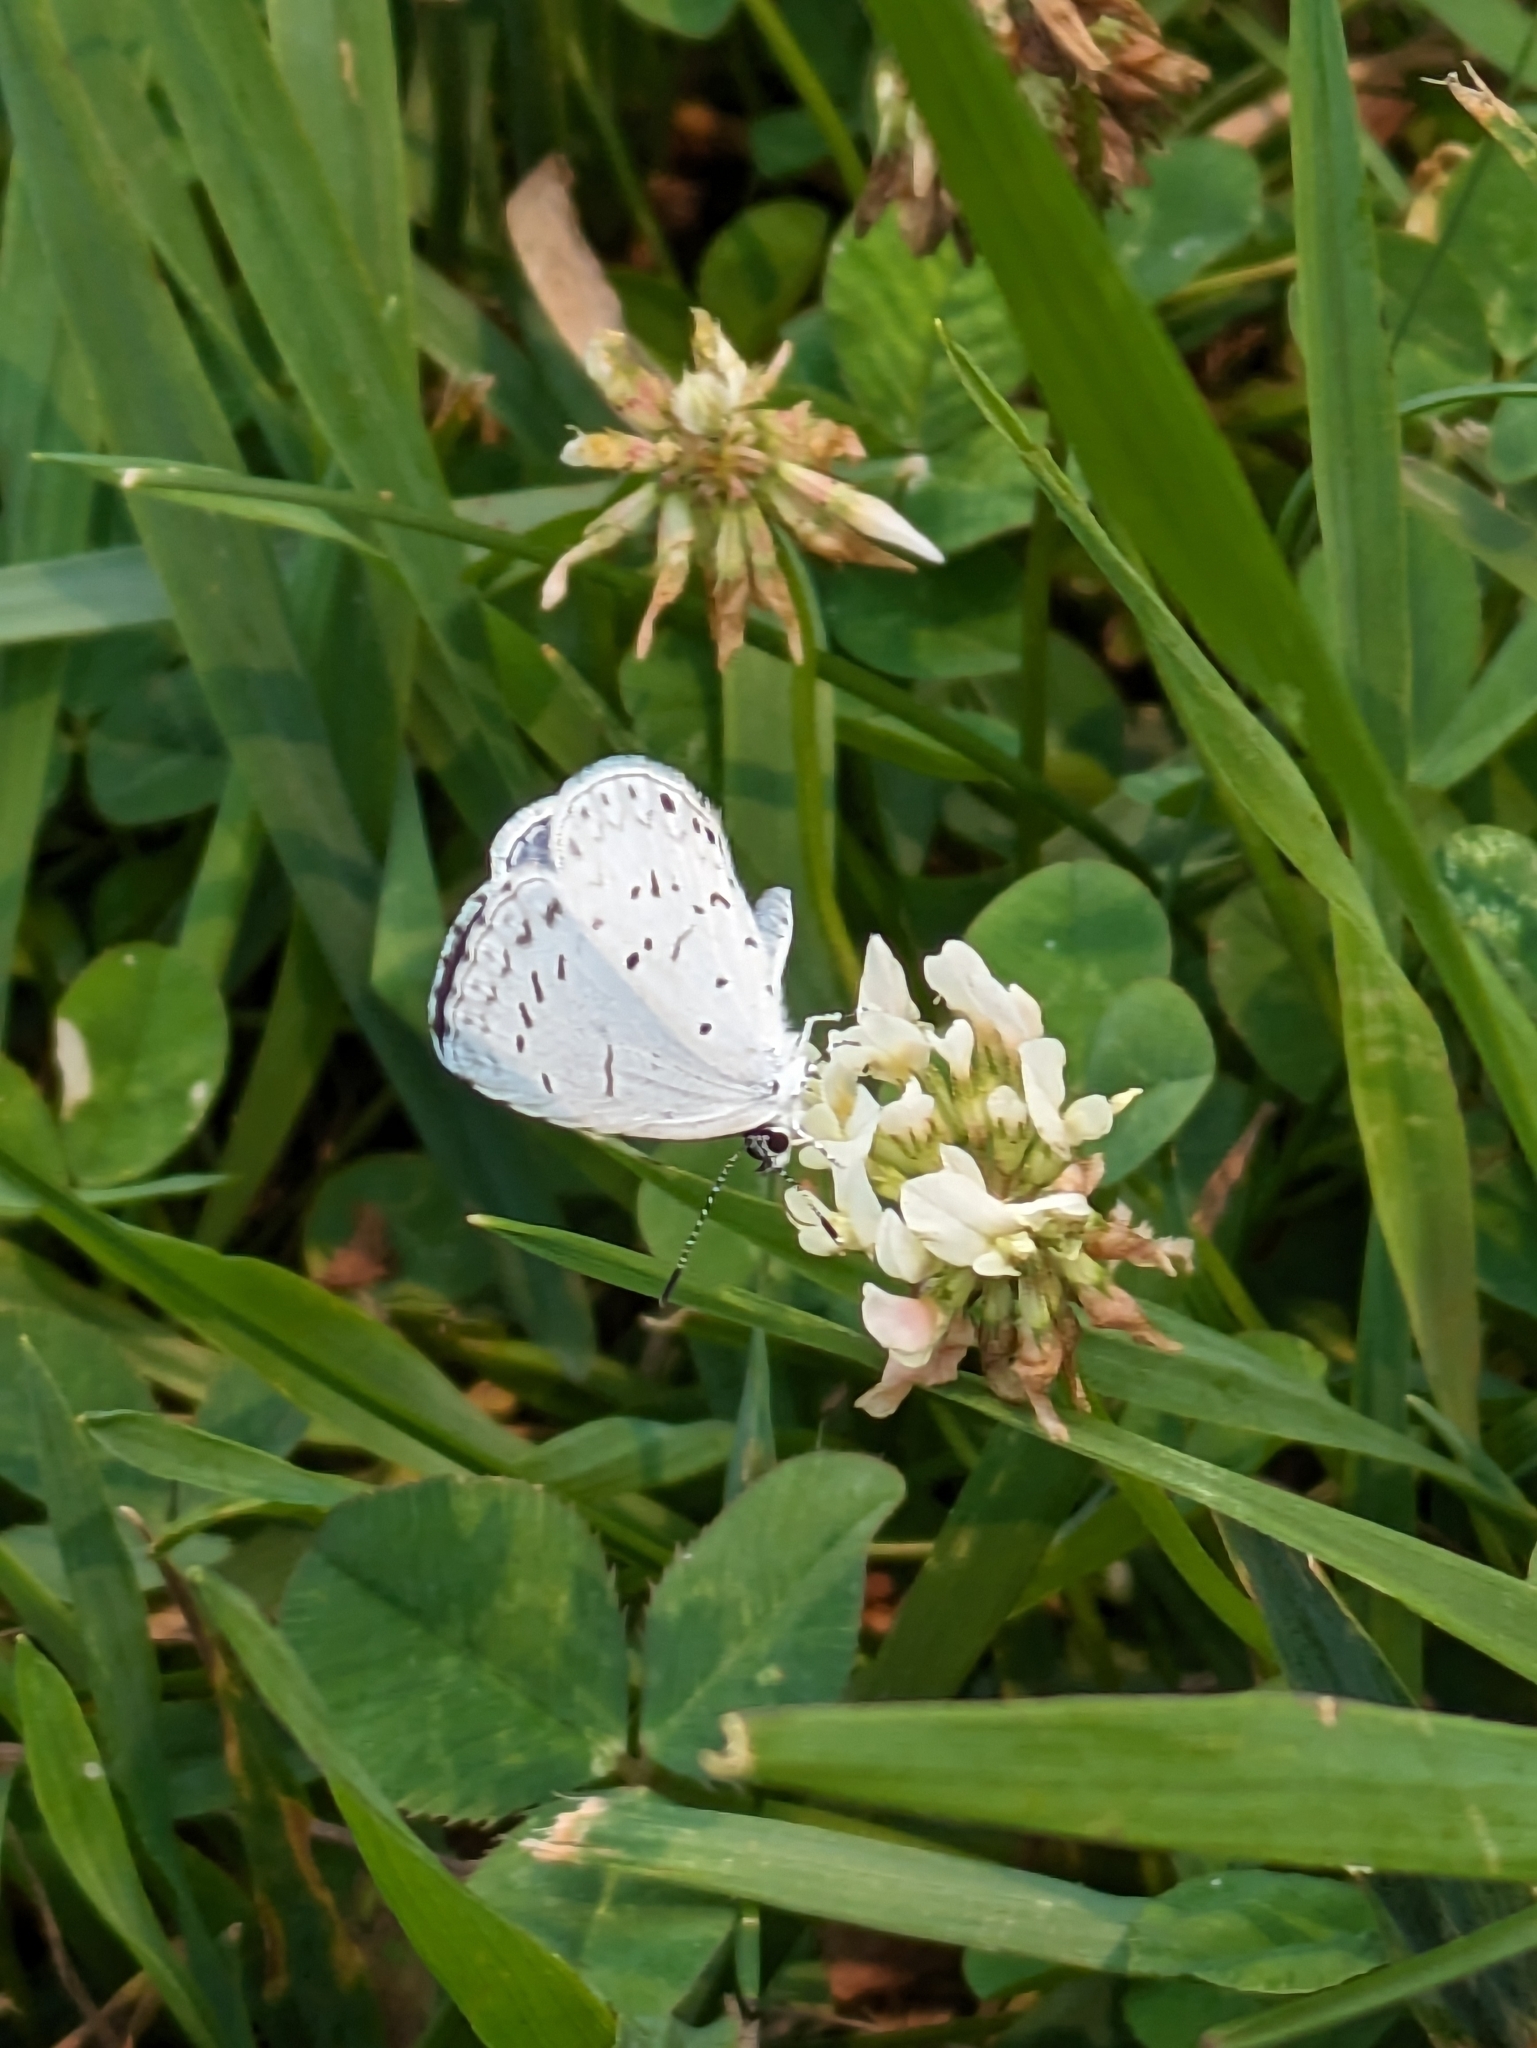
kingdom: Animalia
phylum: Arthropoda
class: Insecta
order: Lepidoptera
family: Lycaenidae
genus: Cyaniris
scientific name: Cyaniris neglecta
